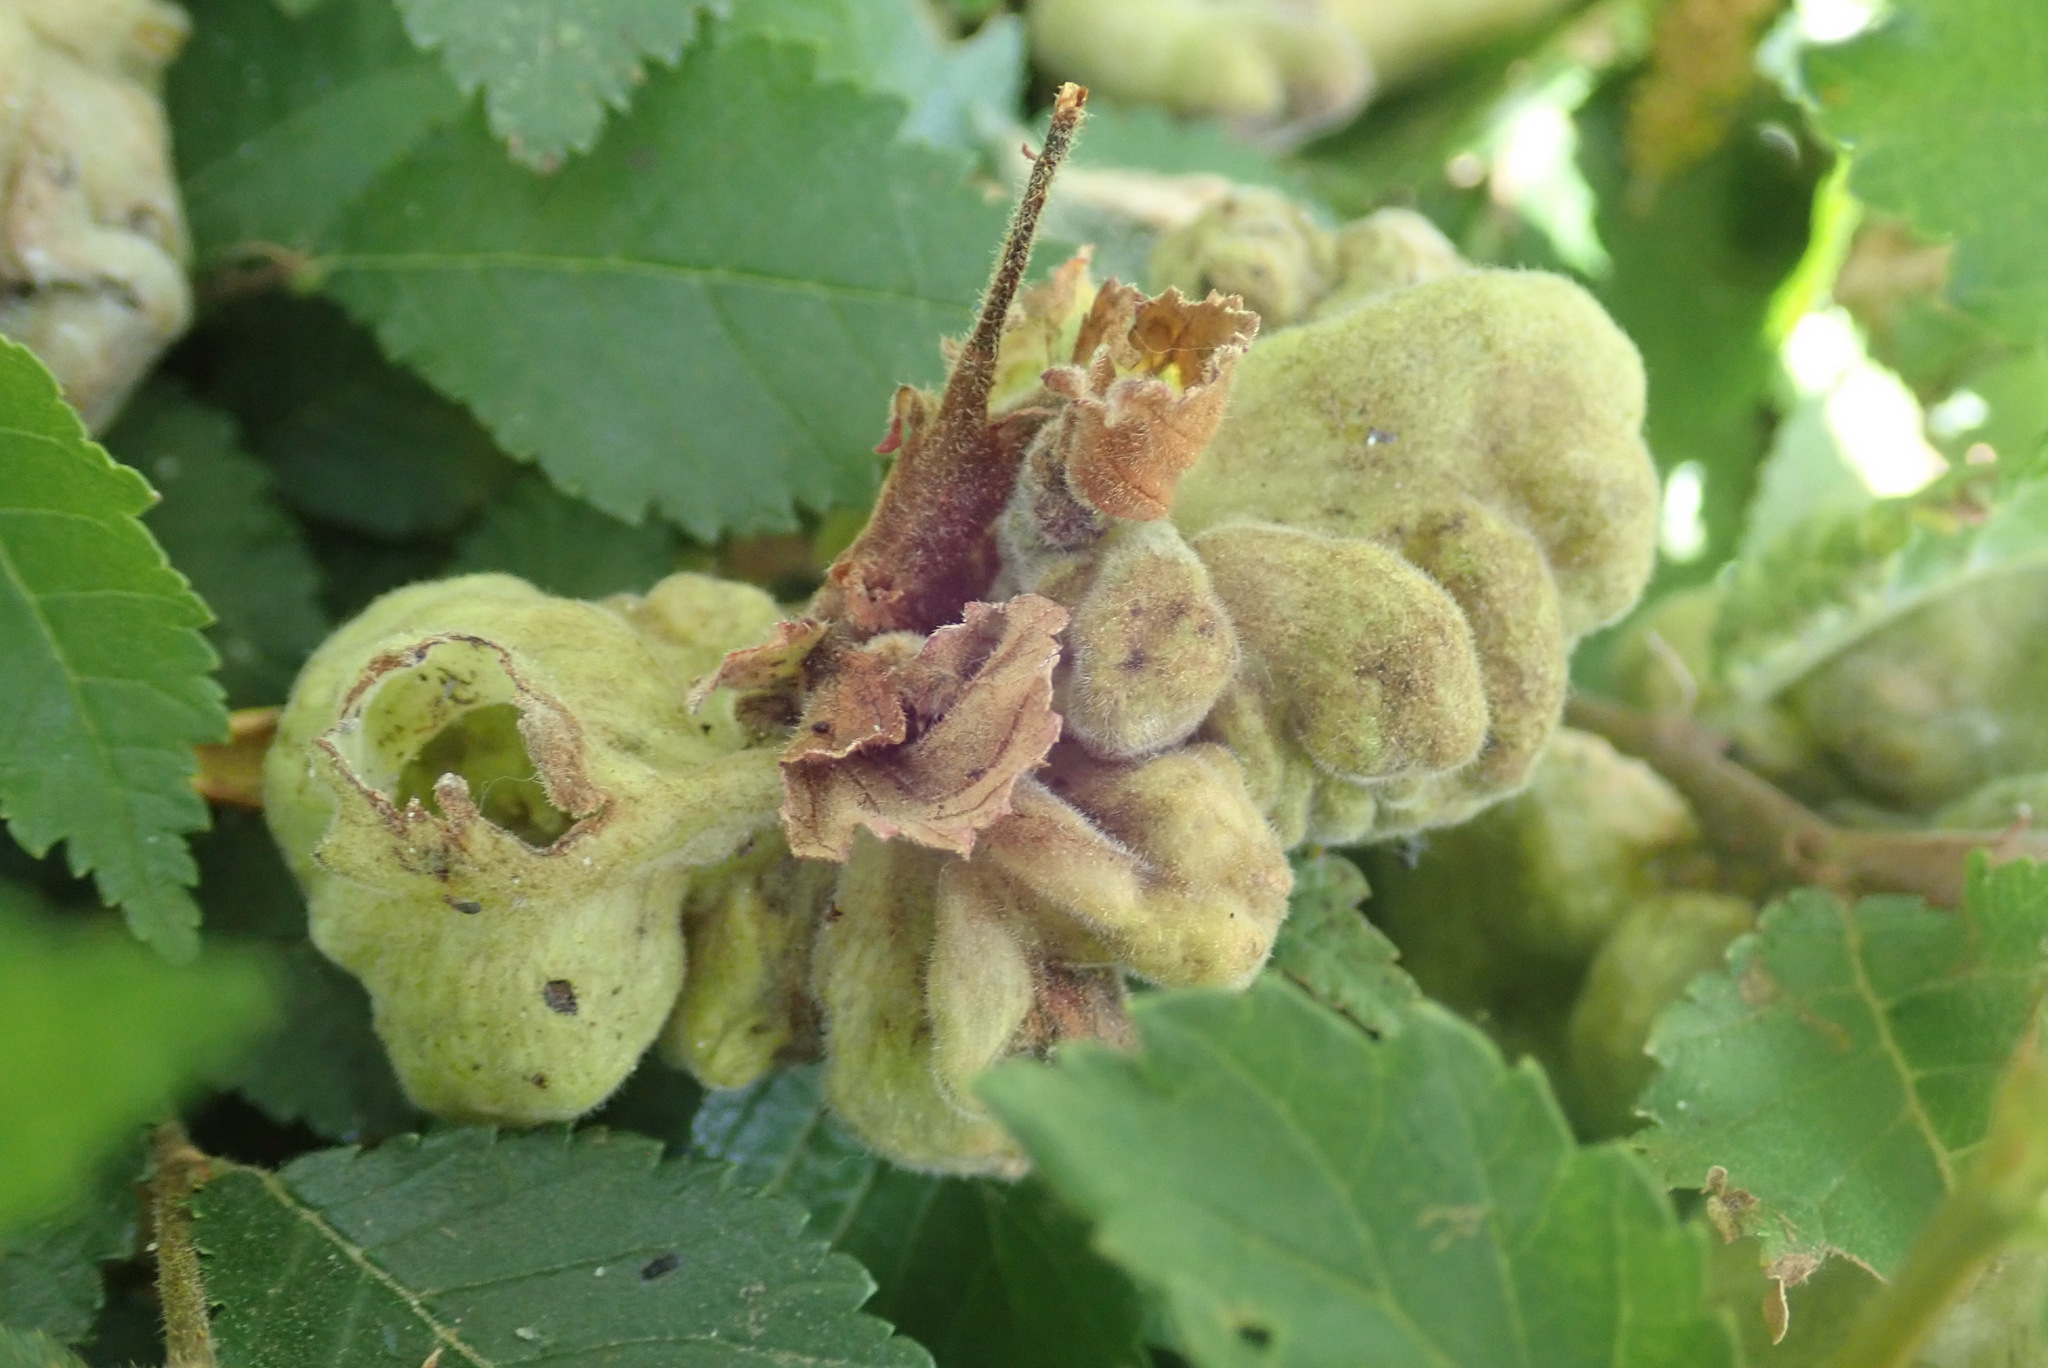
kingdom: Animalia
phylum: Arthropoda
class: Insecta
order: Hemiptera
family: Aphididae
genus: Eriosoma
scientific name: Eriosoma lanuginosum
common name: Aphid
